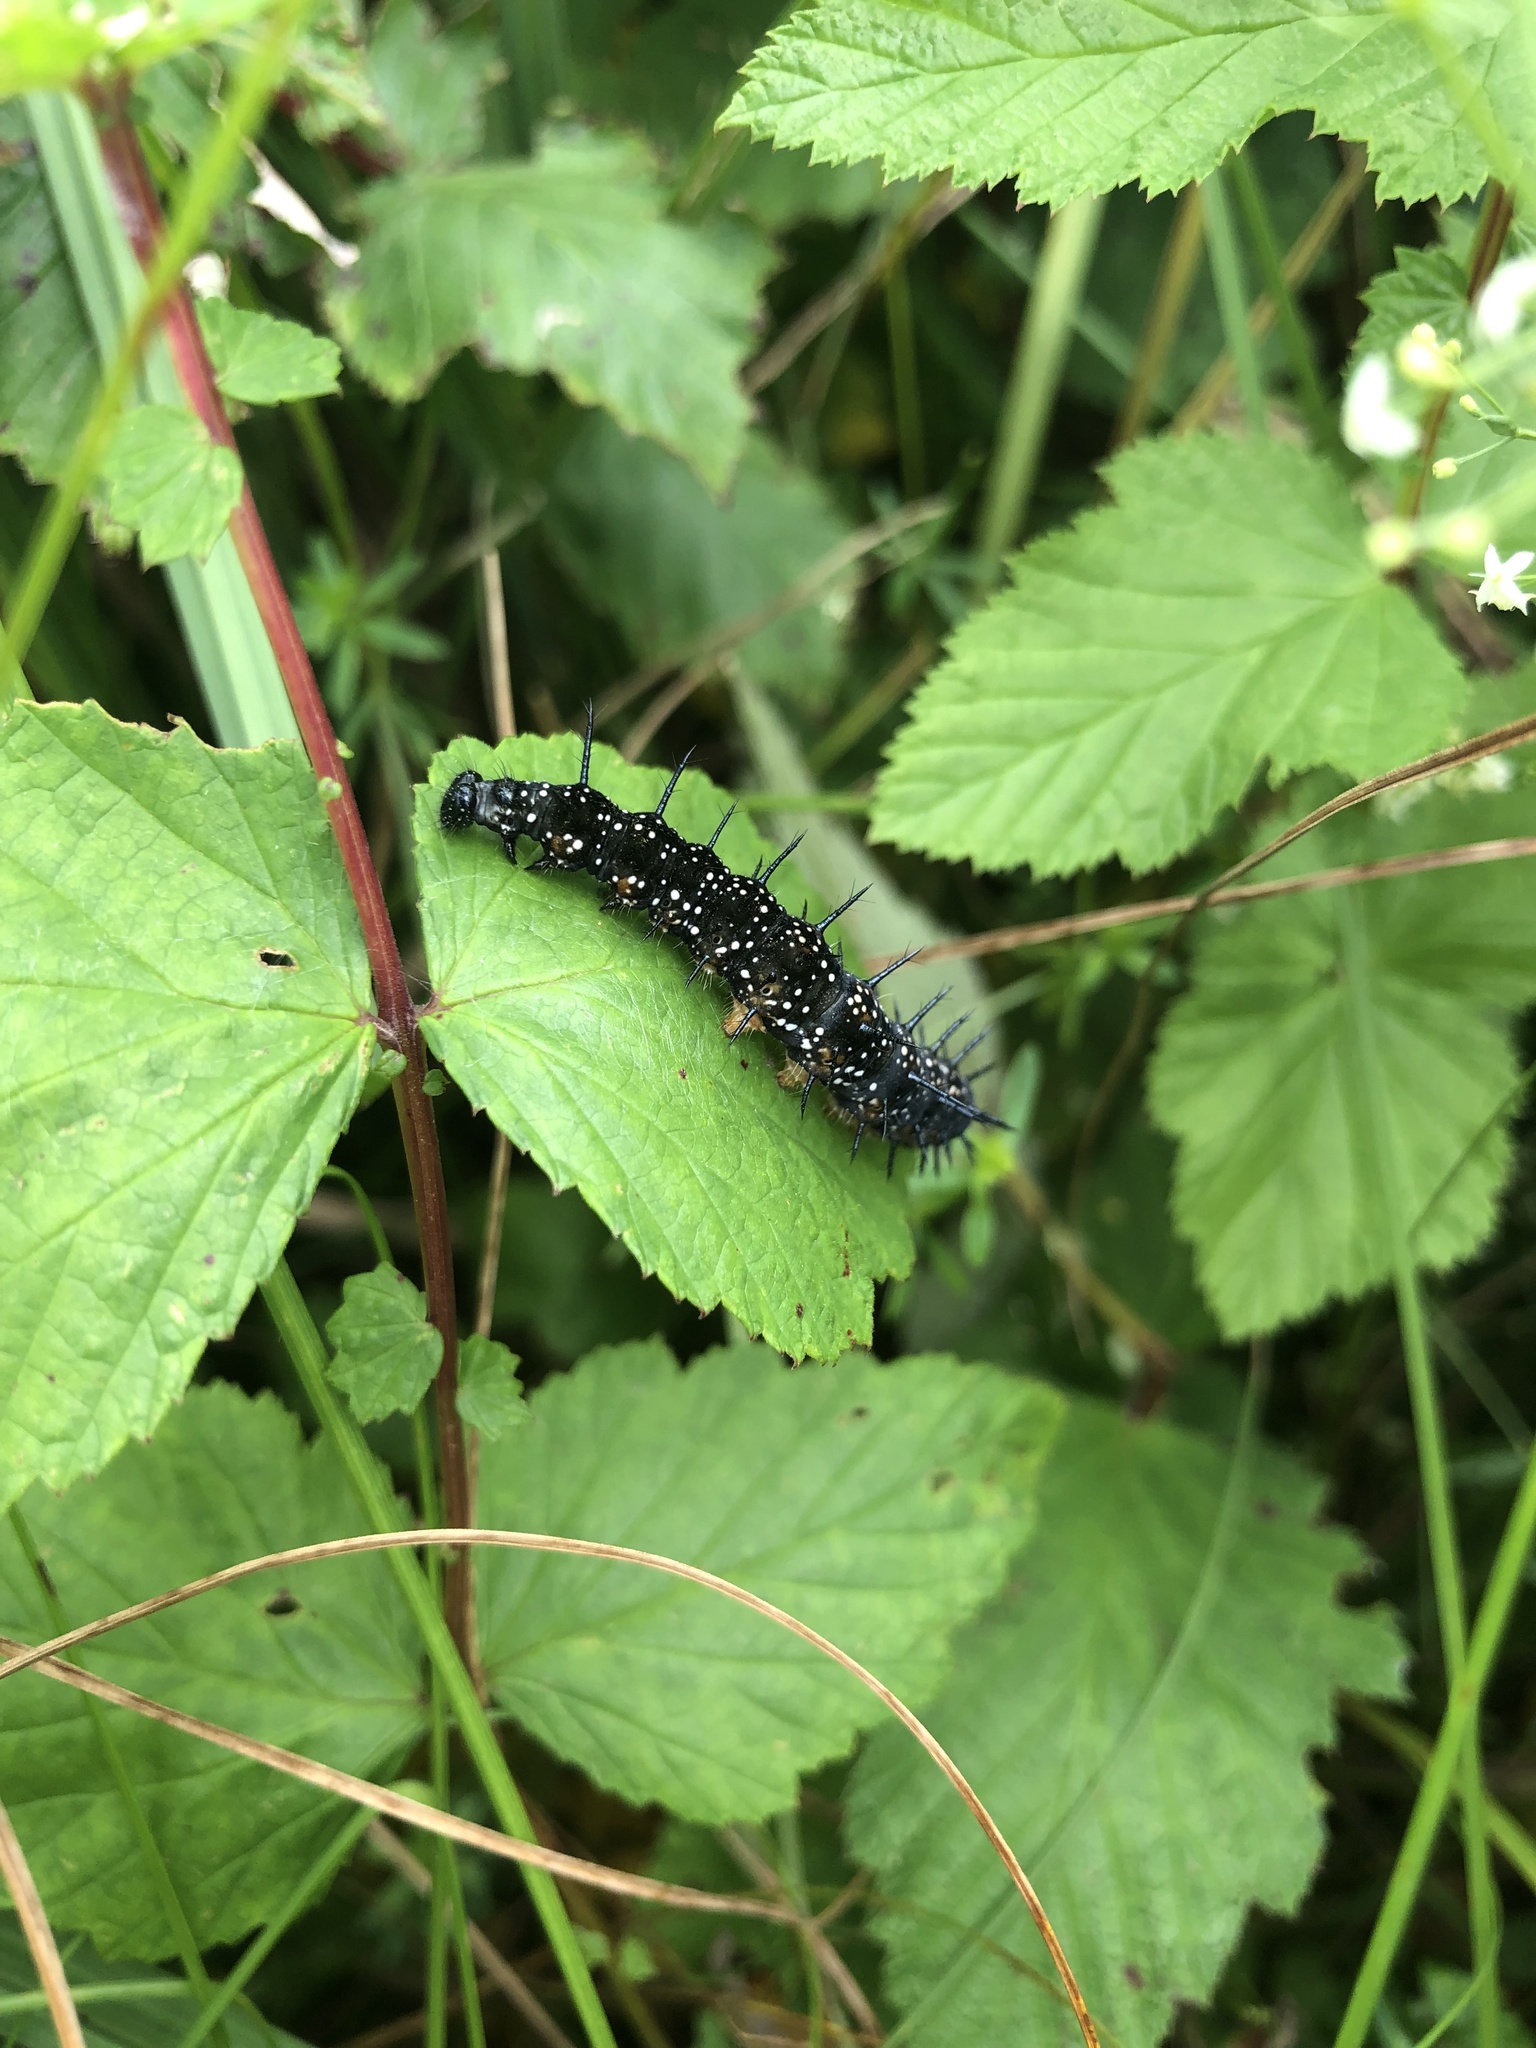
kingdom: Animalia
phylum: Arthropoda
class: Insecta
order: Lepidoptera
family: Nymphalidae
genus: Aglais
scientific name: Aglais io
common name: Peacock
